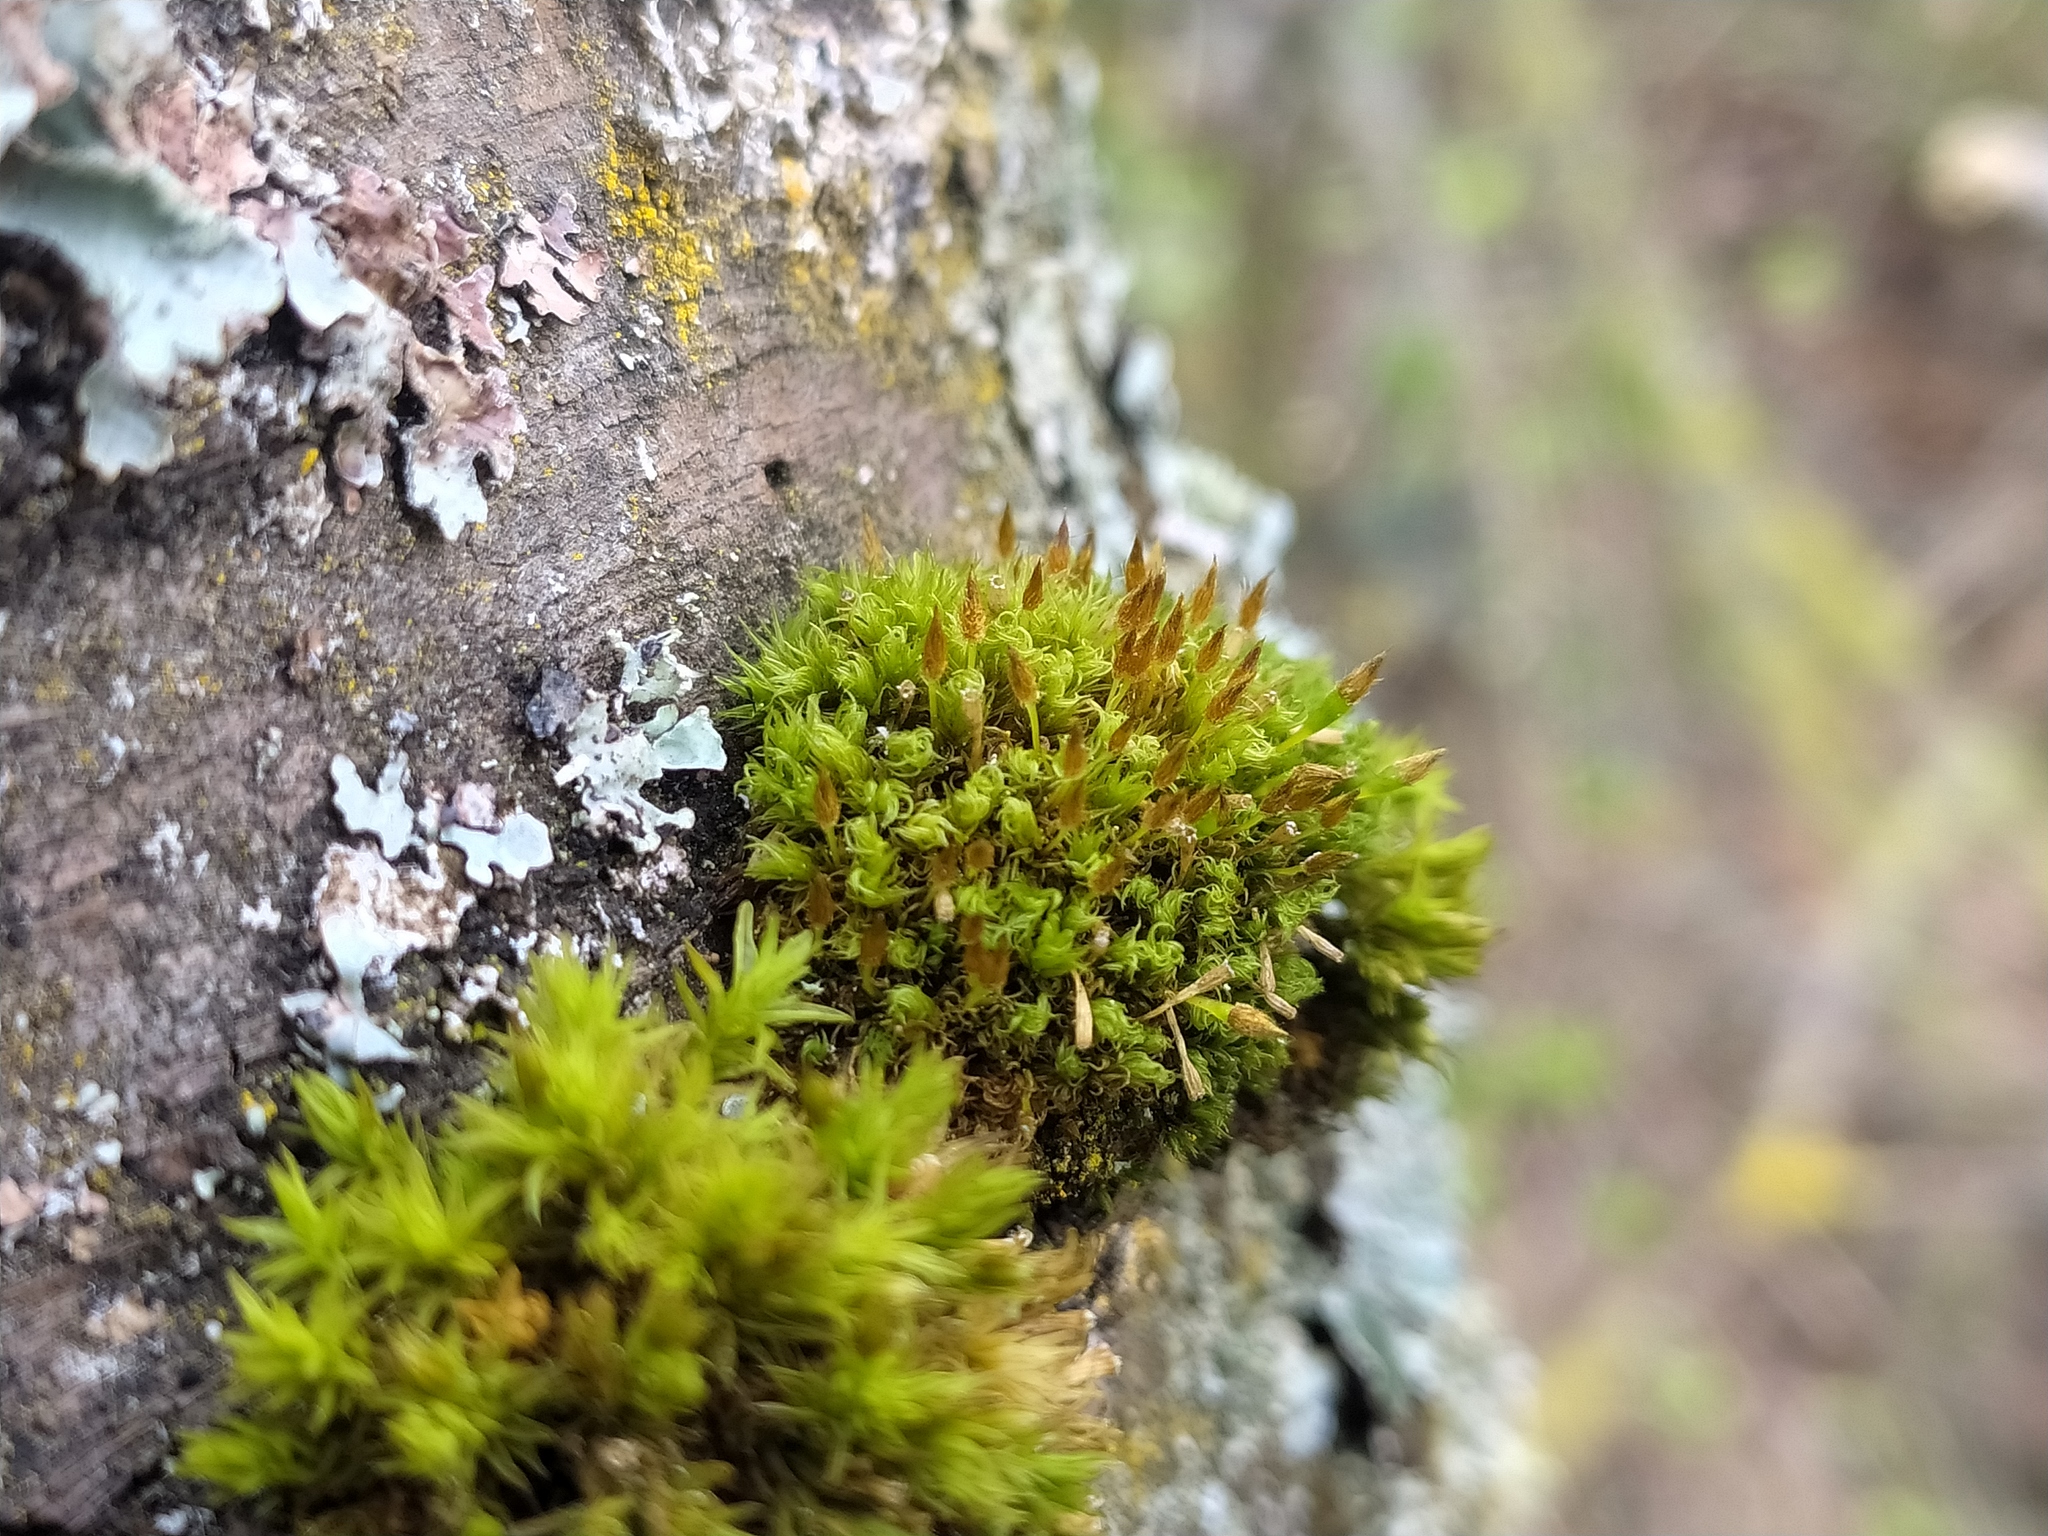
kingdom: Plantae
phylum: Bryophyta
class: Bryopsida
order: Orthotrichales
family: Orthotrichaceae
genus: Ulota
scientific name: Ulota crispula
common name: Crisped pincushion
